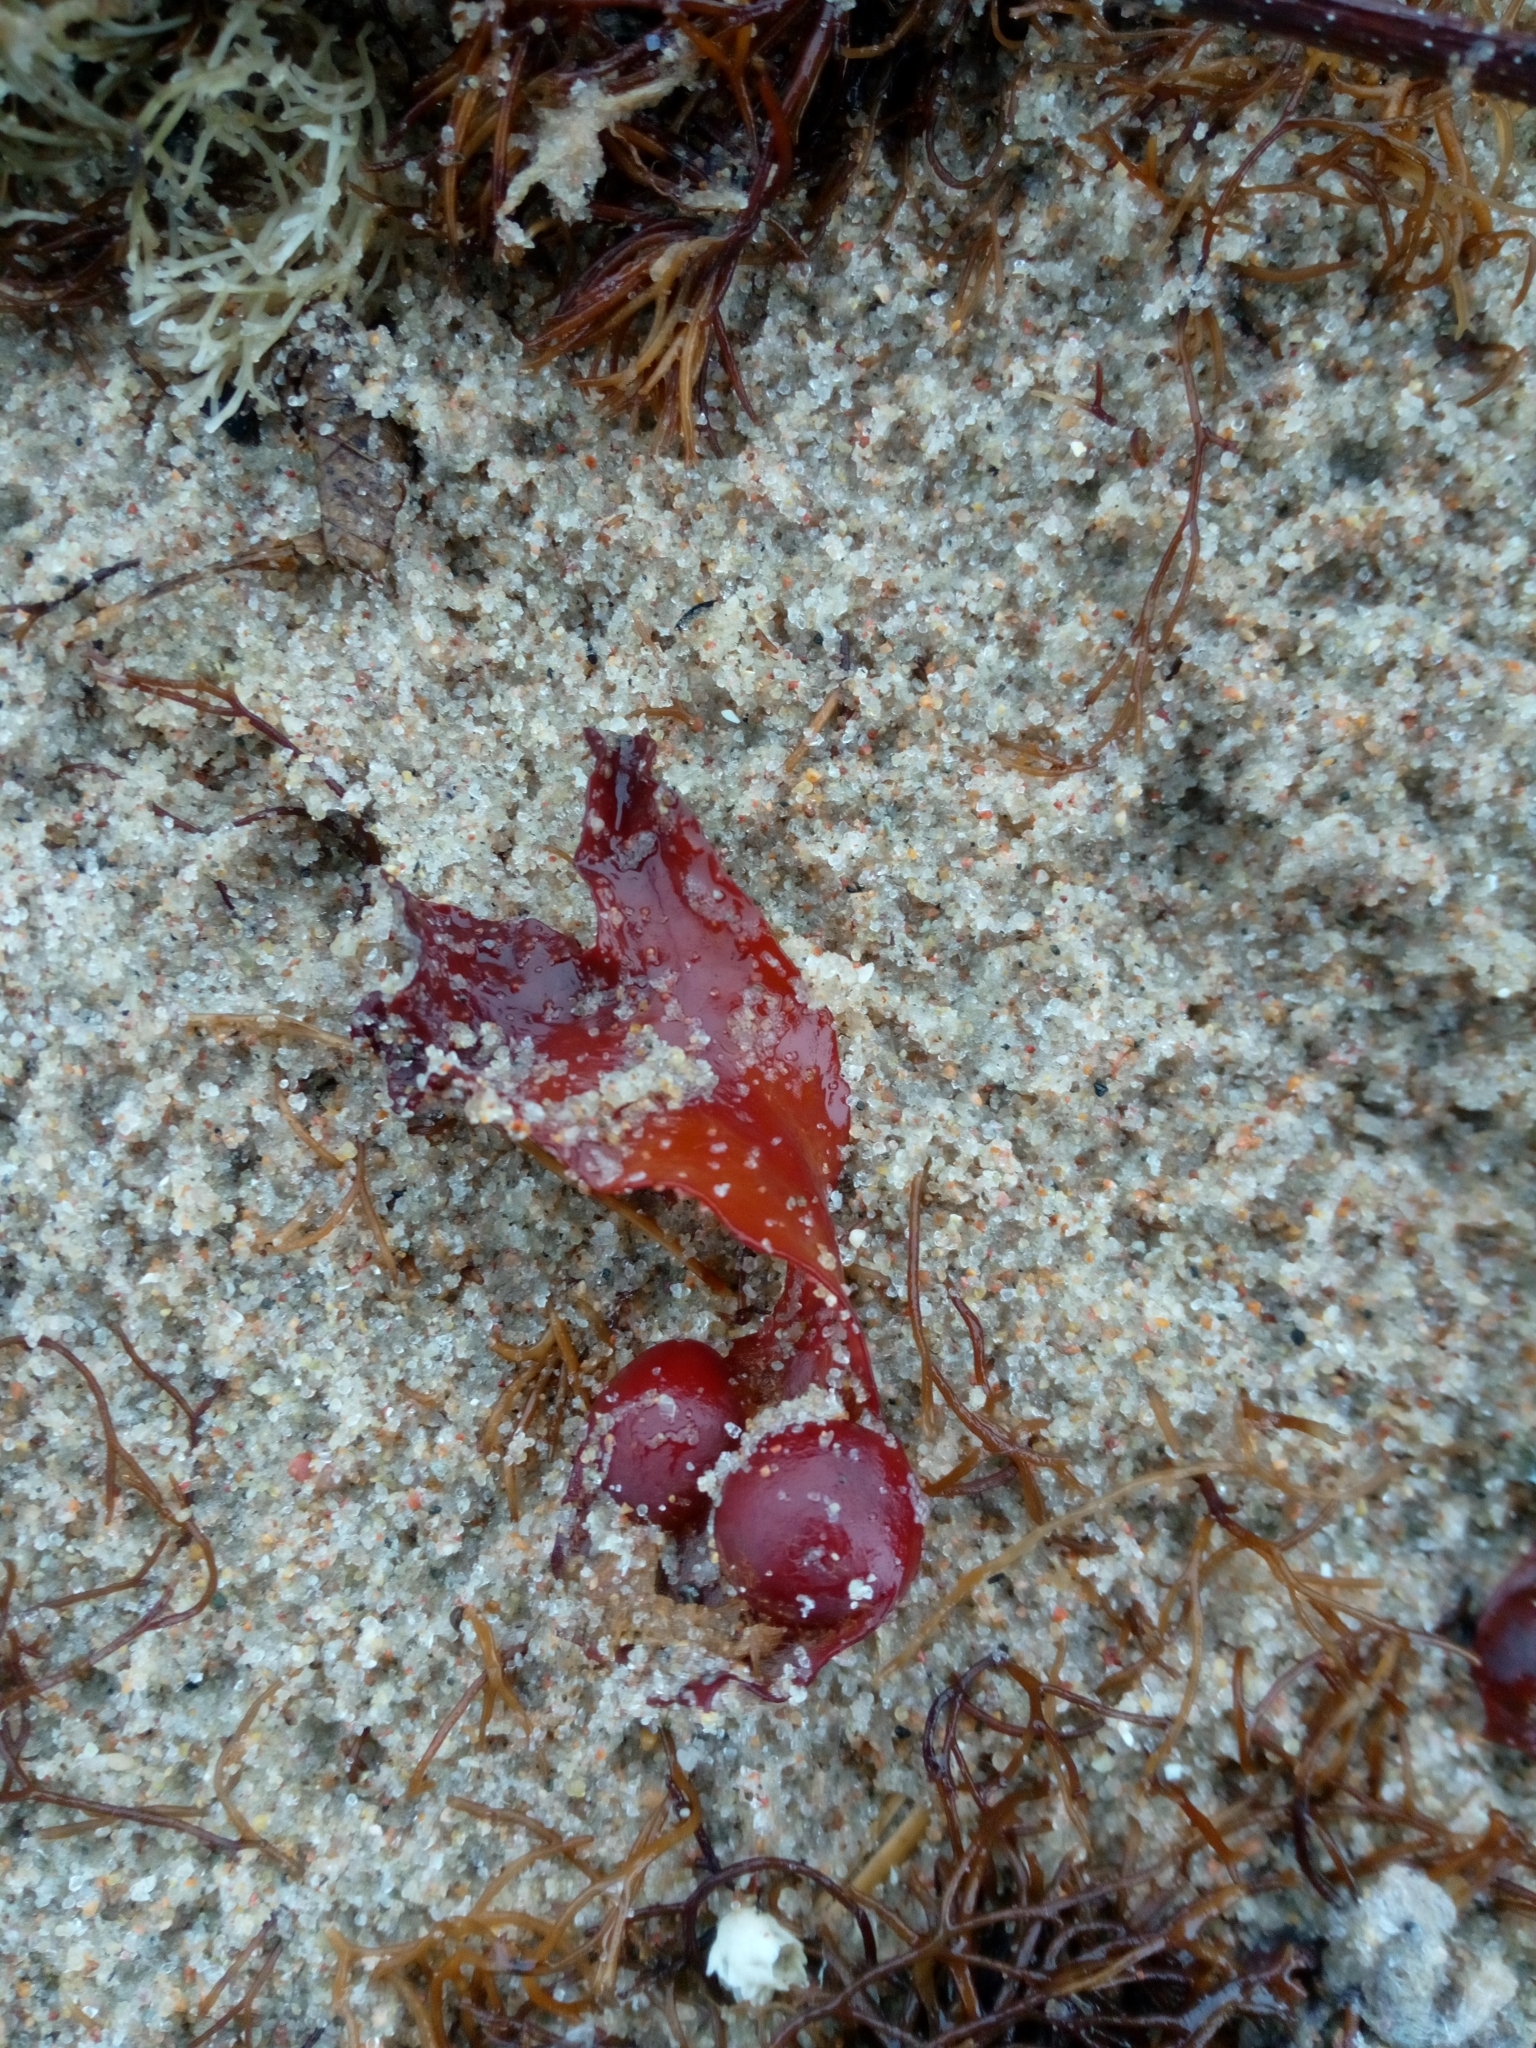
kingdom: Chromista
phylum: Ochrophyta
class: Phaeophyceae
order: Fucales
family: Fucaceae
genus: Fucus
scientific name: Fucus vesiculosus
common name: Bladder wrack
